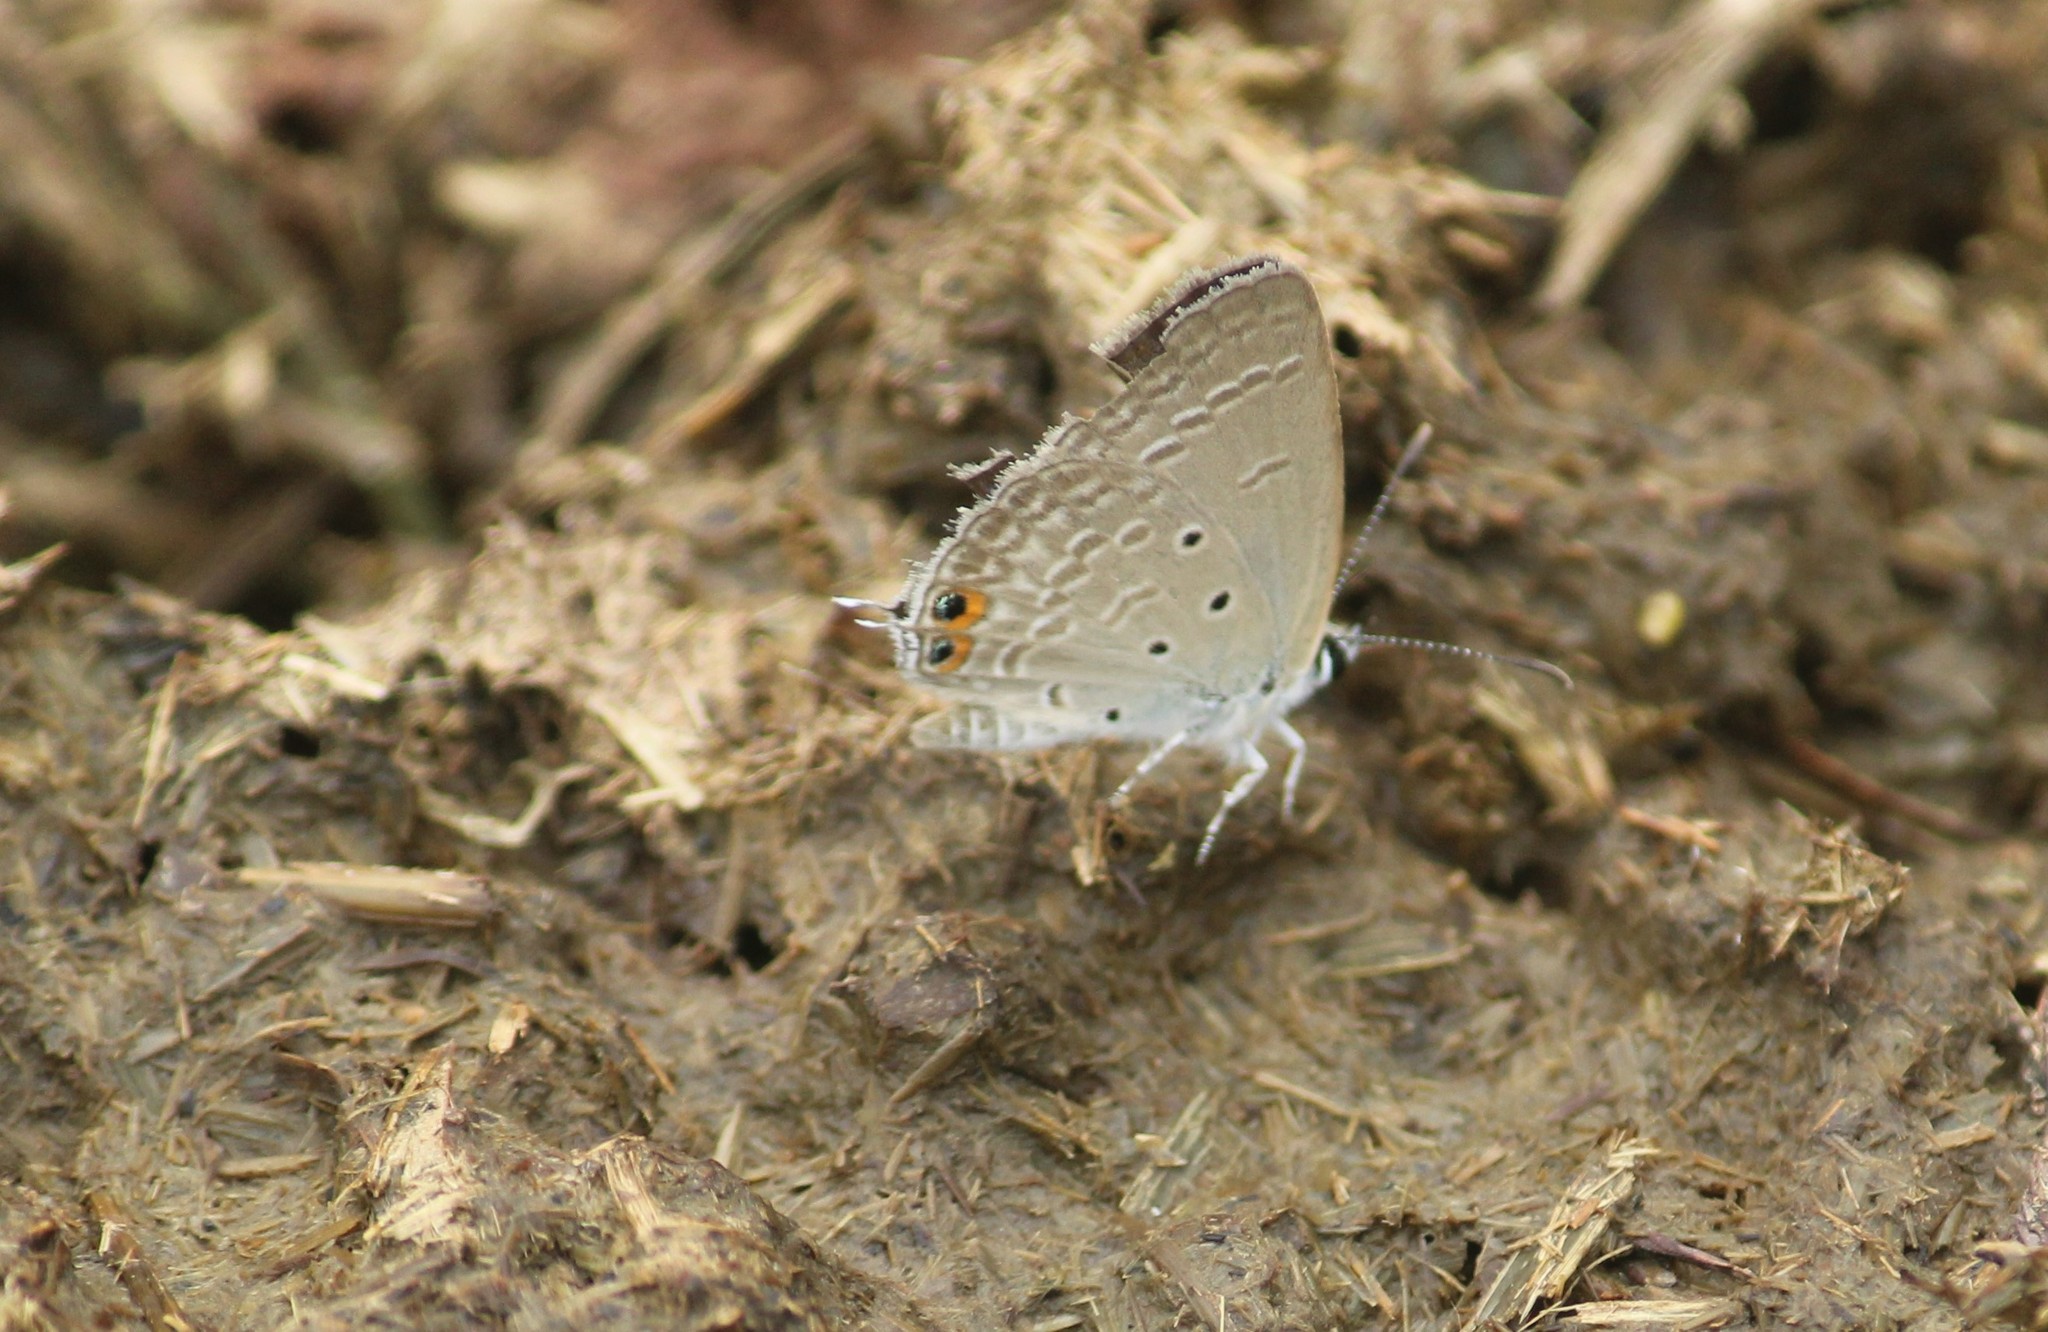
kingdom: Animalia
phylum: Arthropoda
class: Insecta
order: Lepidoptera
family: Lycaenidae
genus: Euchrysops
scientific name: Euchrysops cnejus
